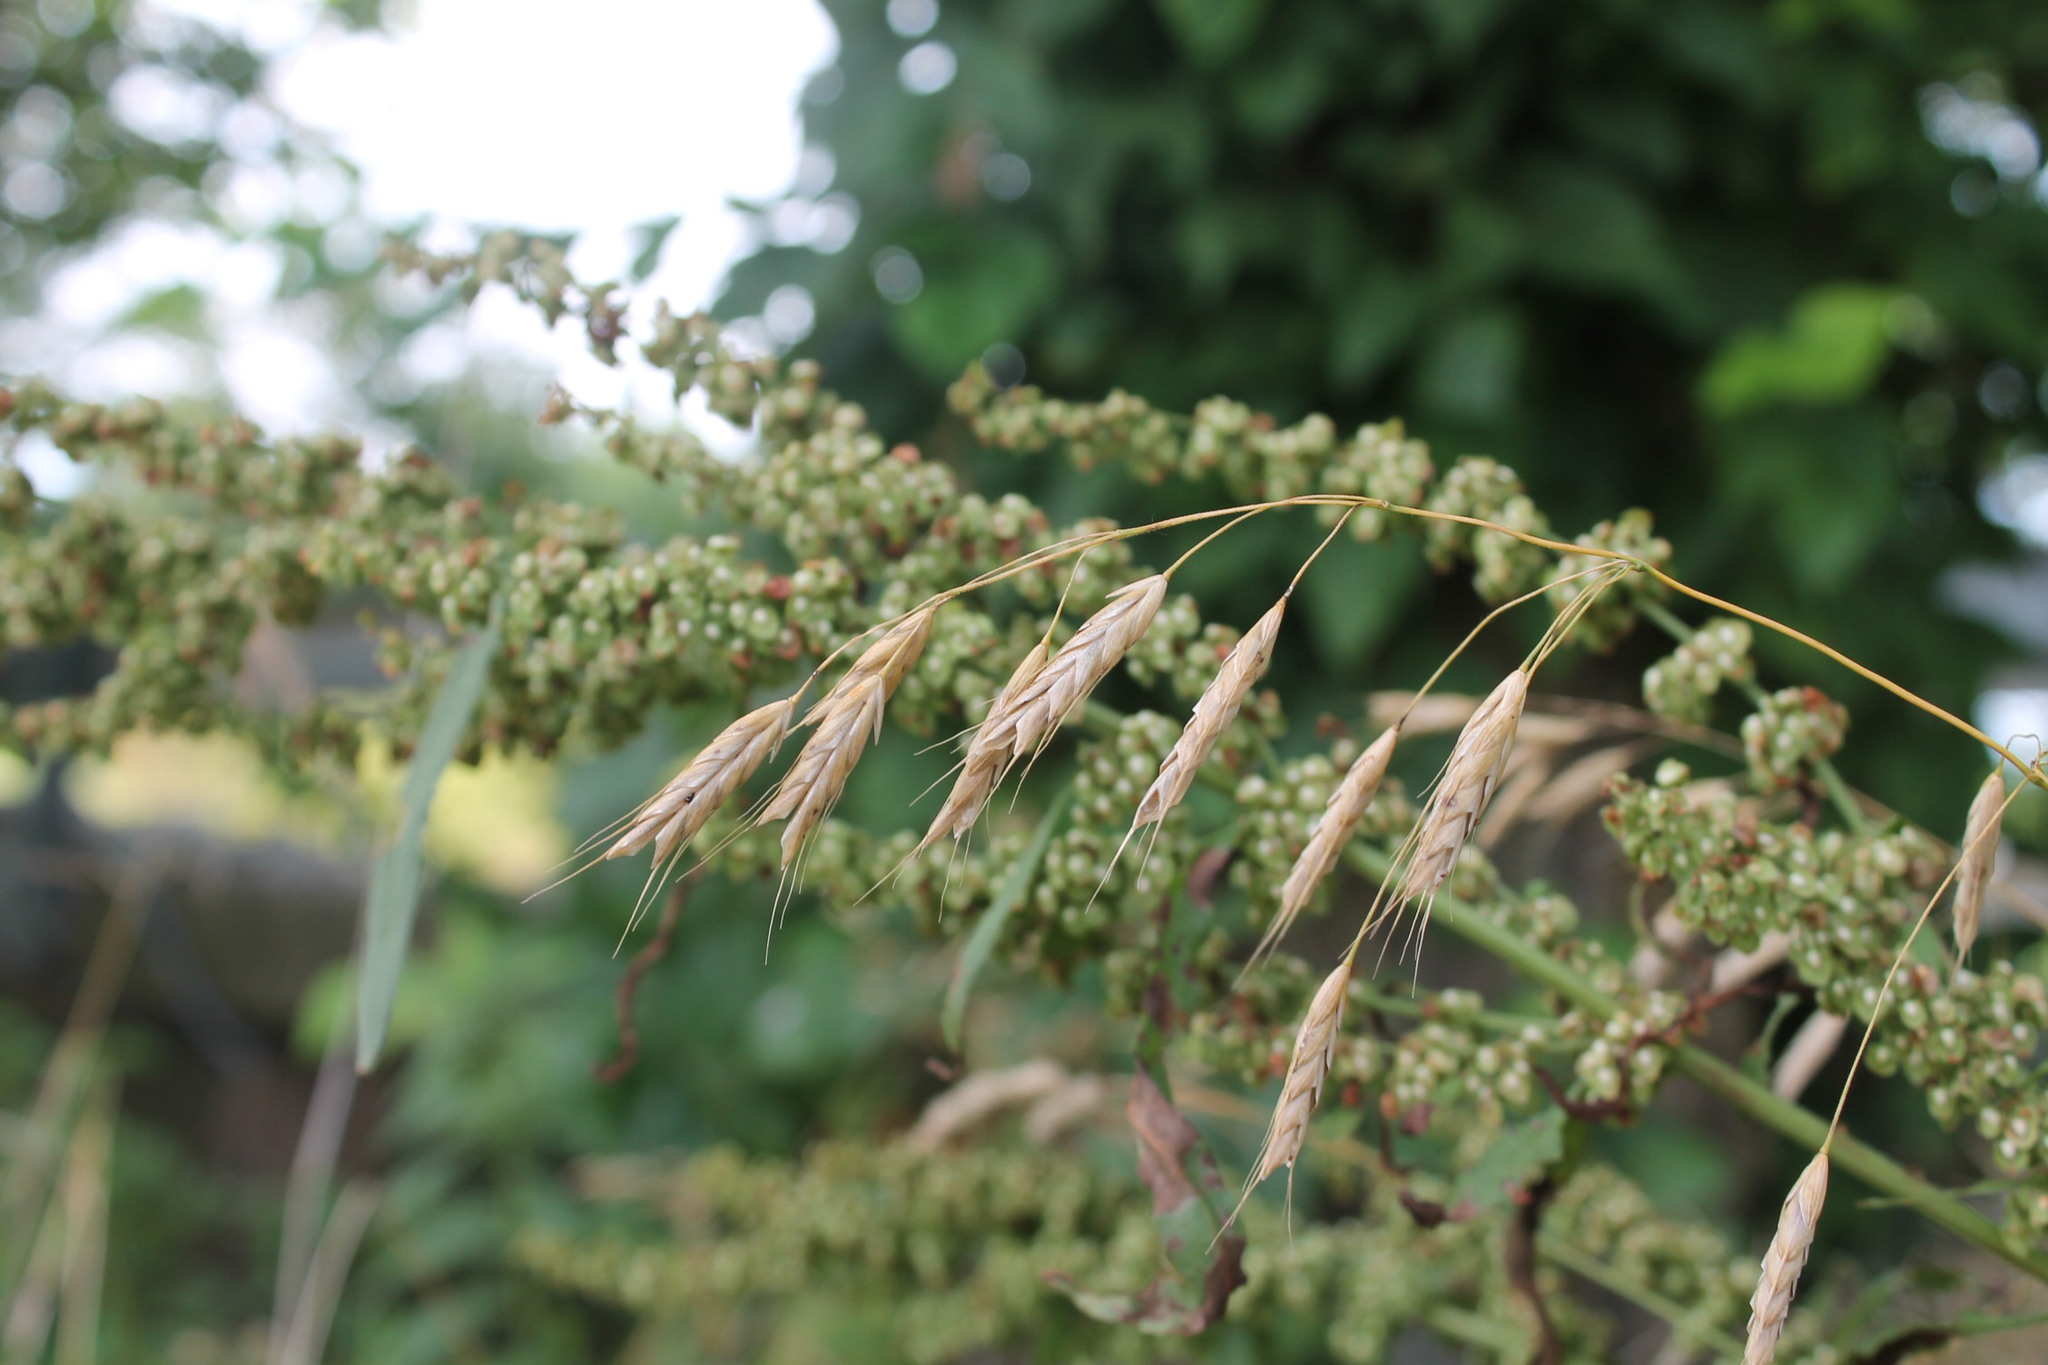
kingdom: Plantae
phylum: Tracheophyta
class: Liliopsida
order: Poales
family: Poaceae
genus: Bromus
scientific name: Bromus japonicus
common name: Japanese brome
